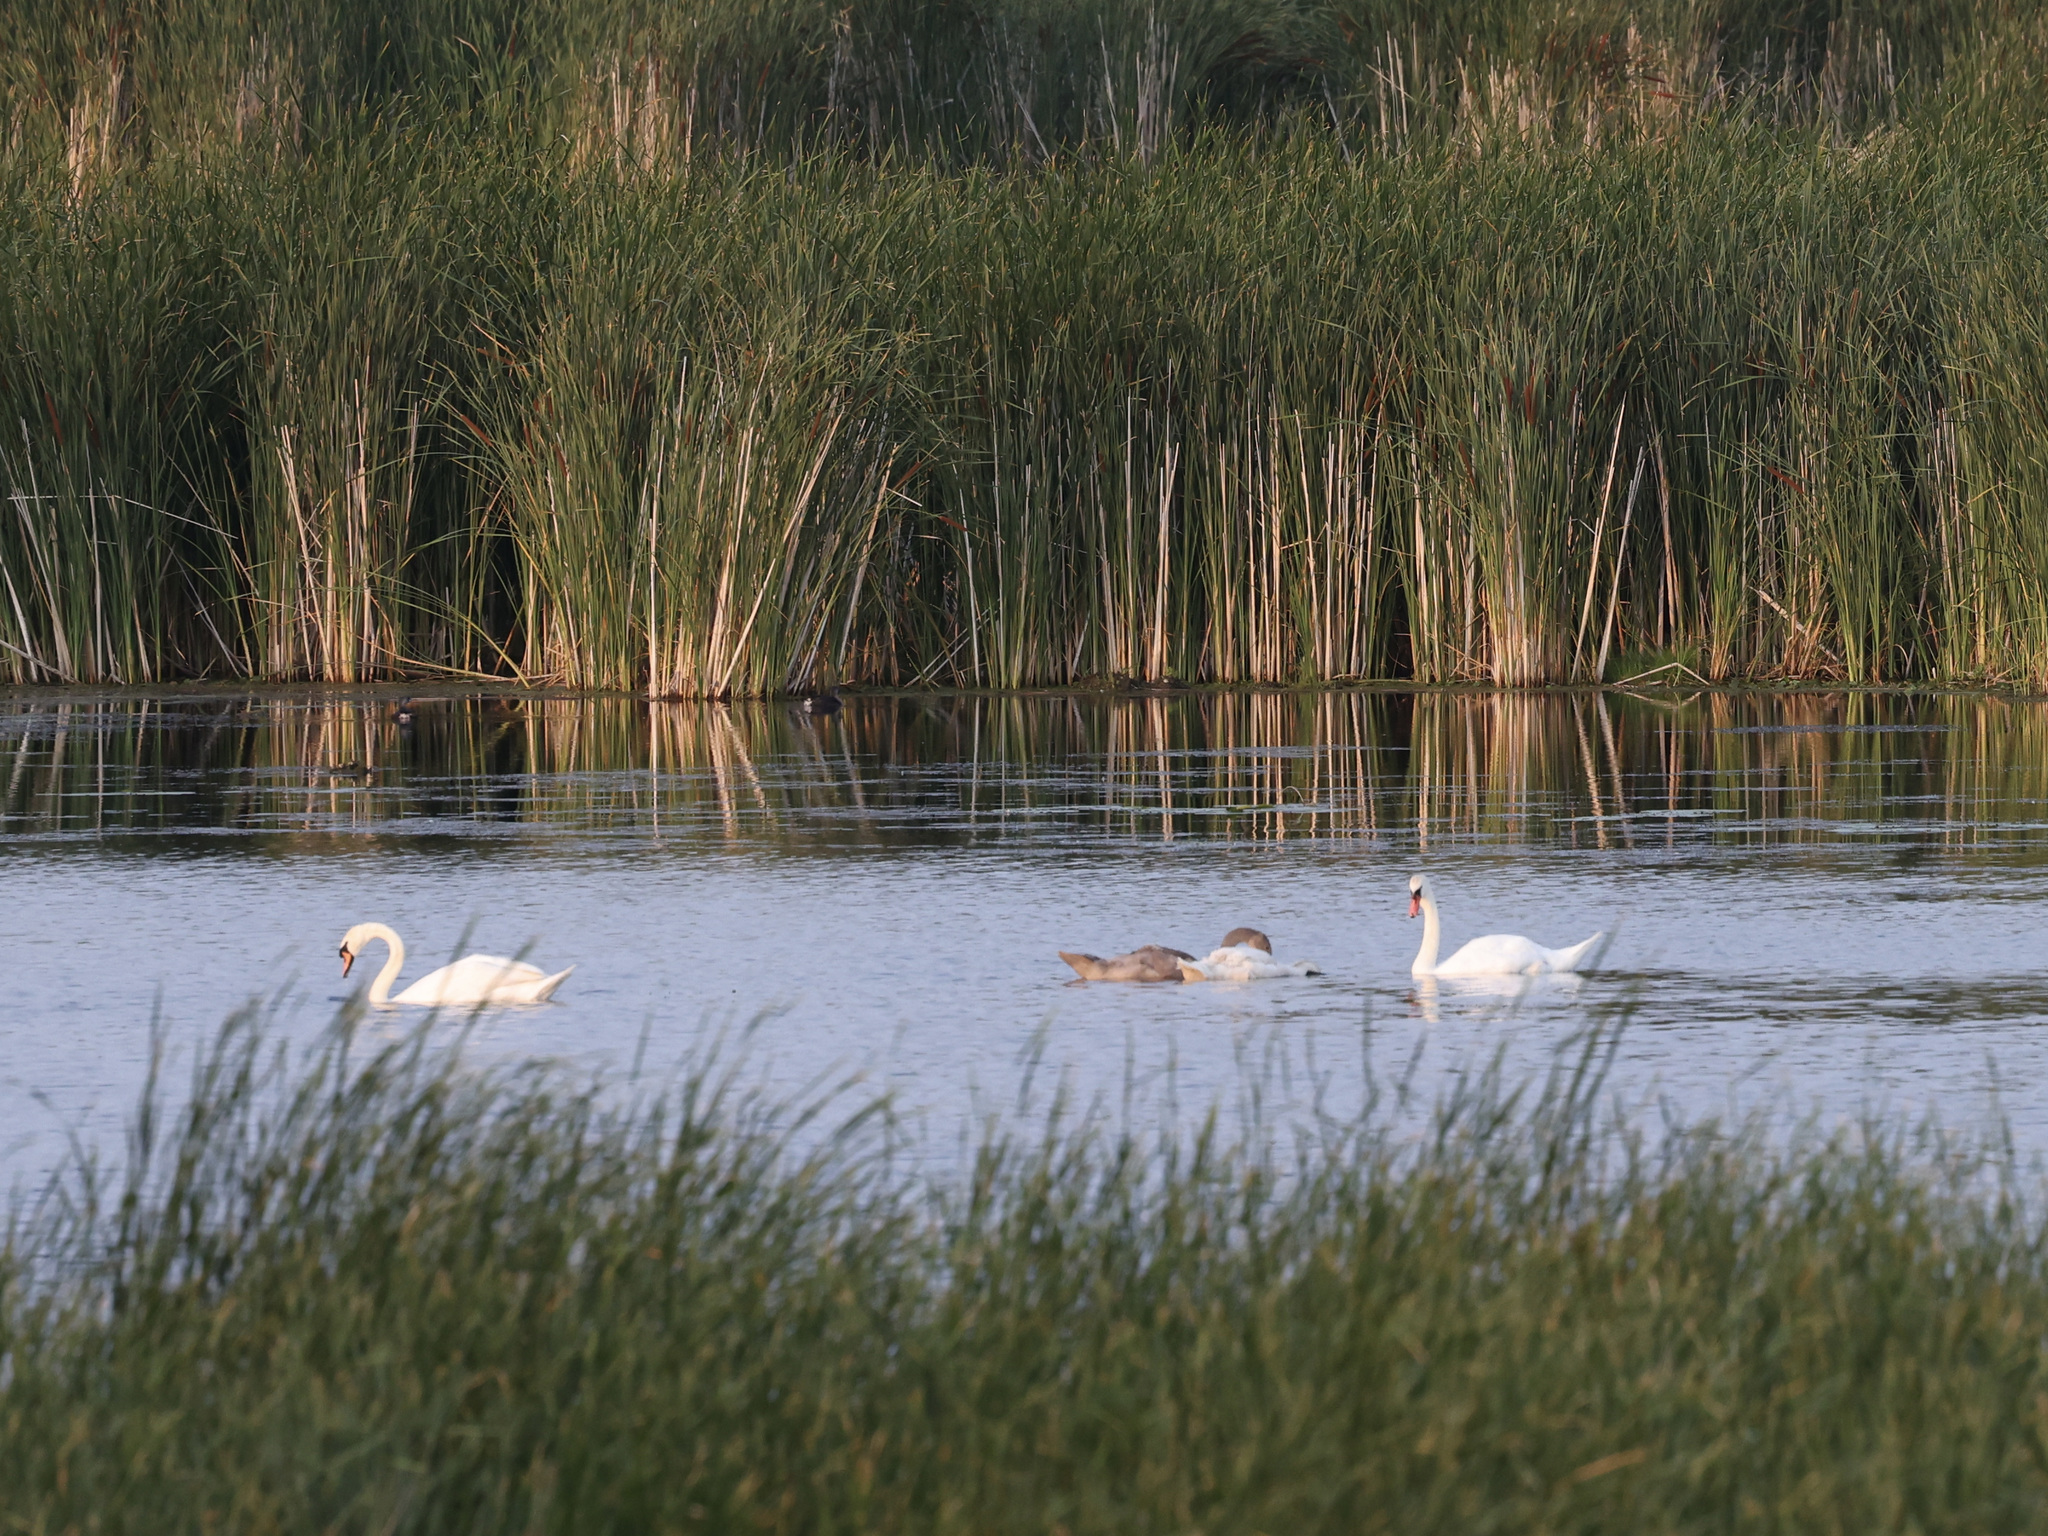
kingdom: Animalia
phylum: Chordata
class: Aves
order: Anseriformes
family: Anatidae
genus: Cygnus
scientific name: Cygnus olor
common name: Mute swan
